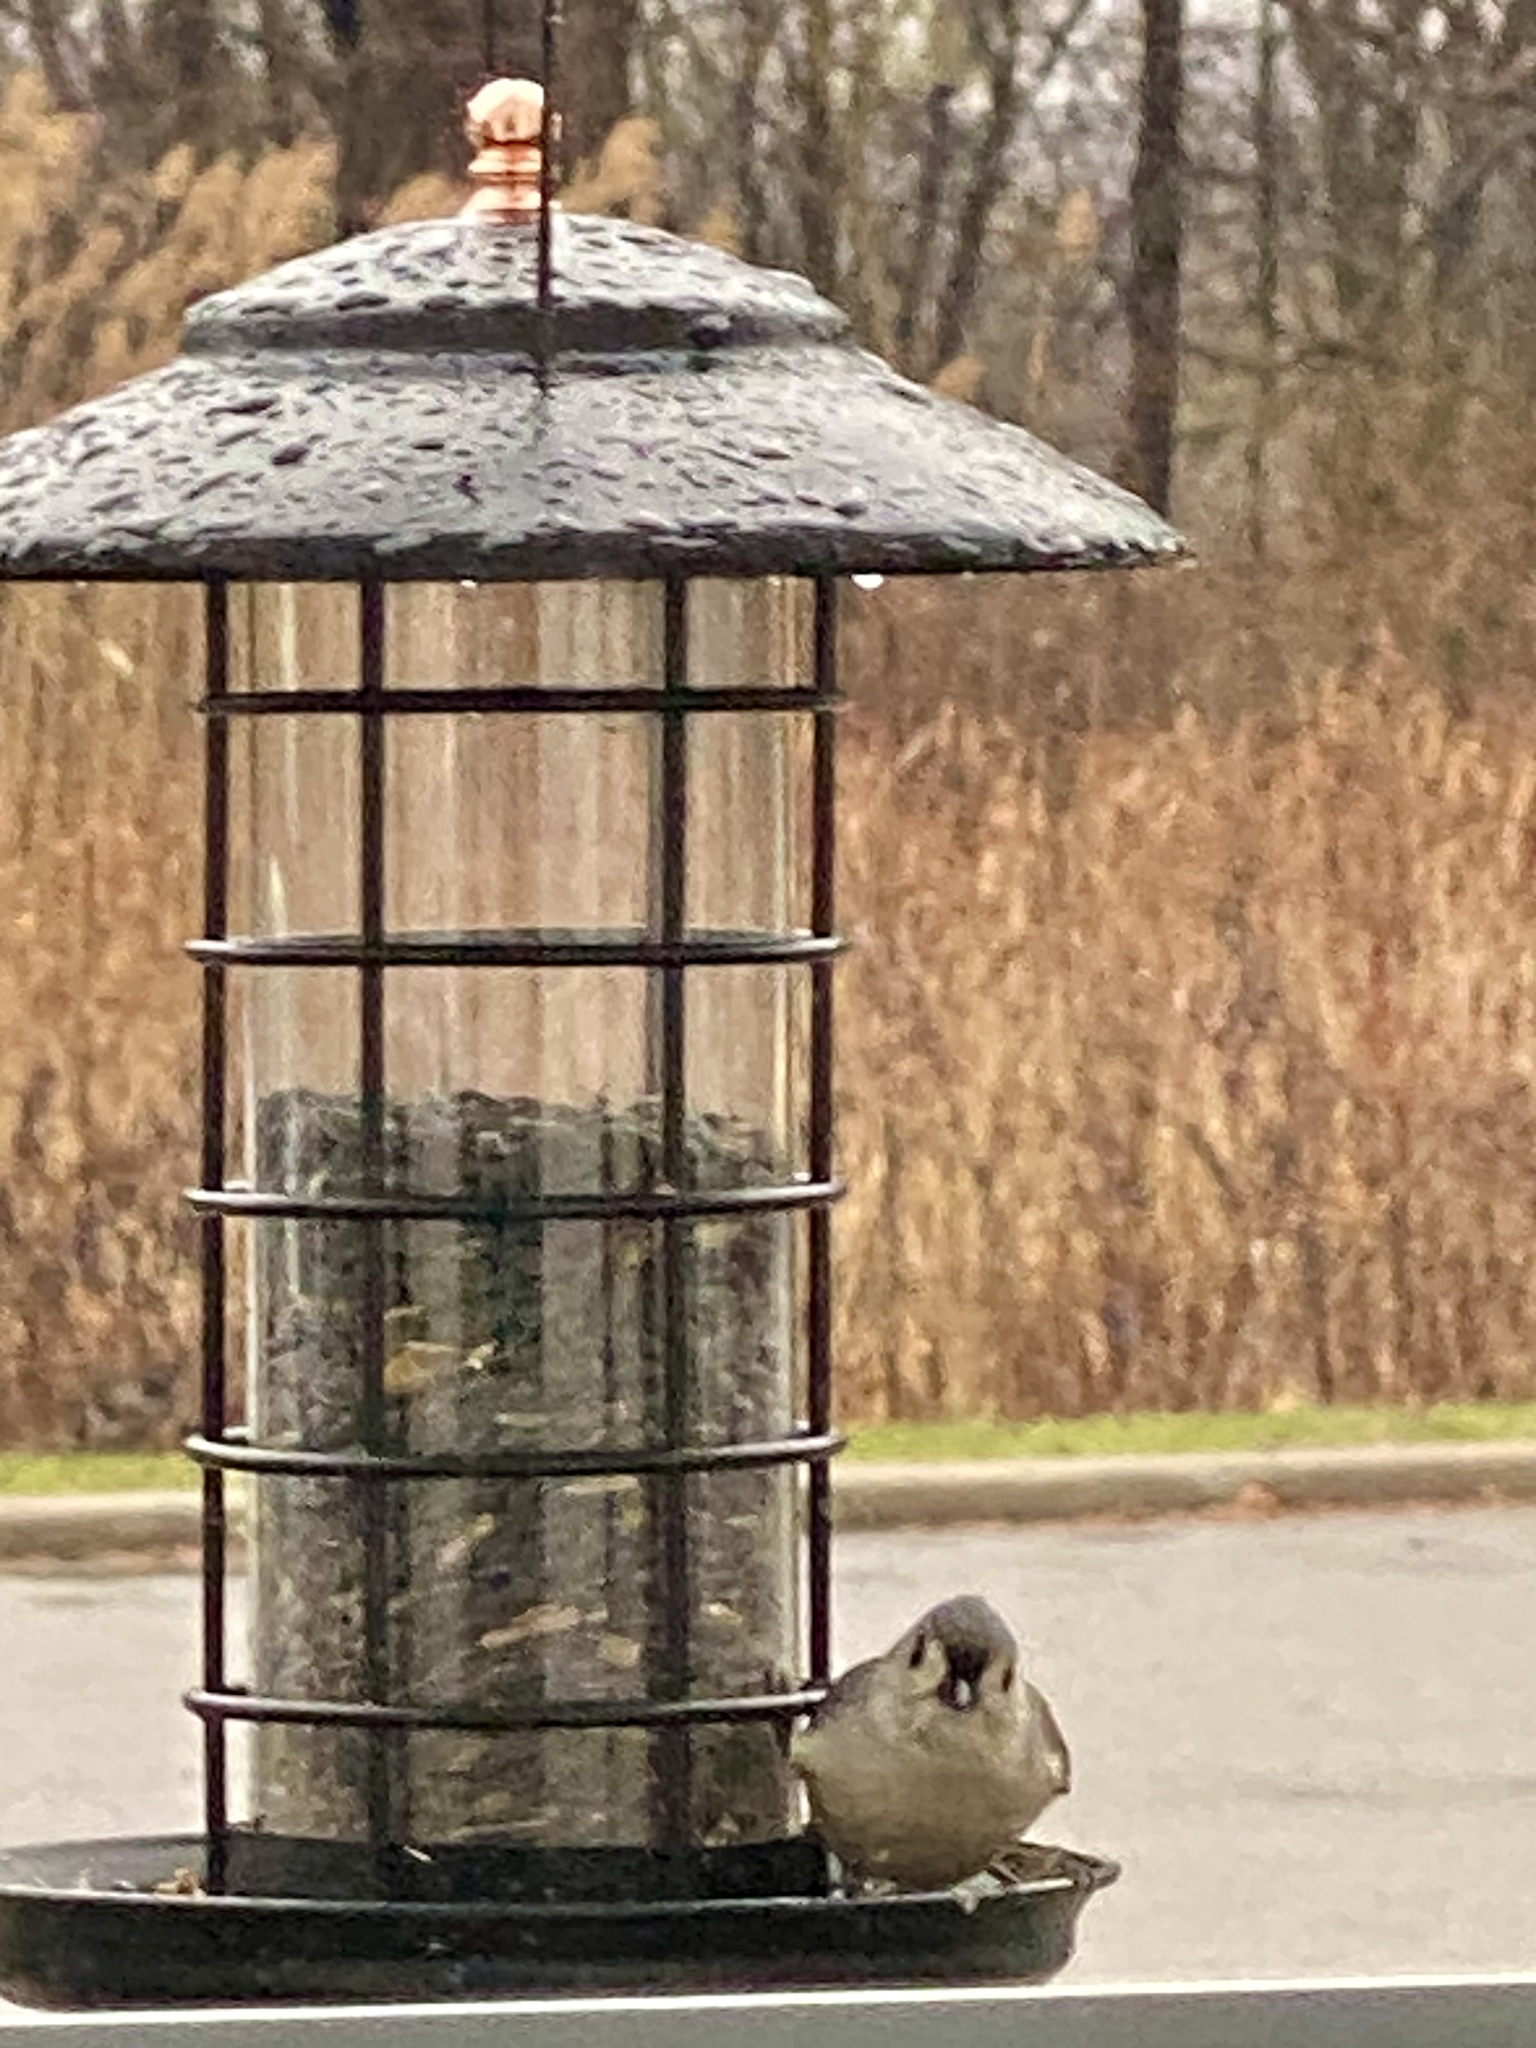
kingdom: Animalia
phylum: Chordata
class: Aves
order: Passeriformes
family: Paridae
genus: Baeolophus
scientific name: Baeolophus bicolor
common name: Tufted titmouse
